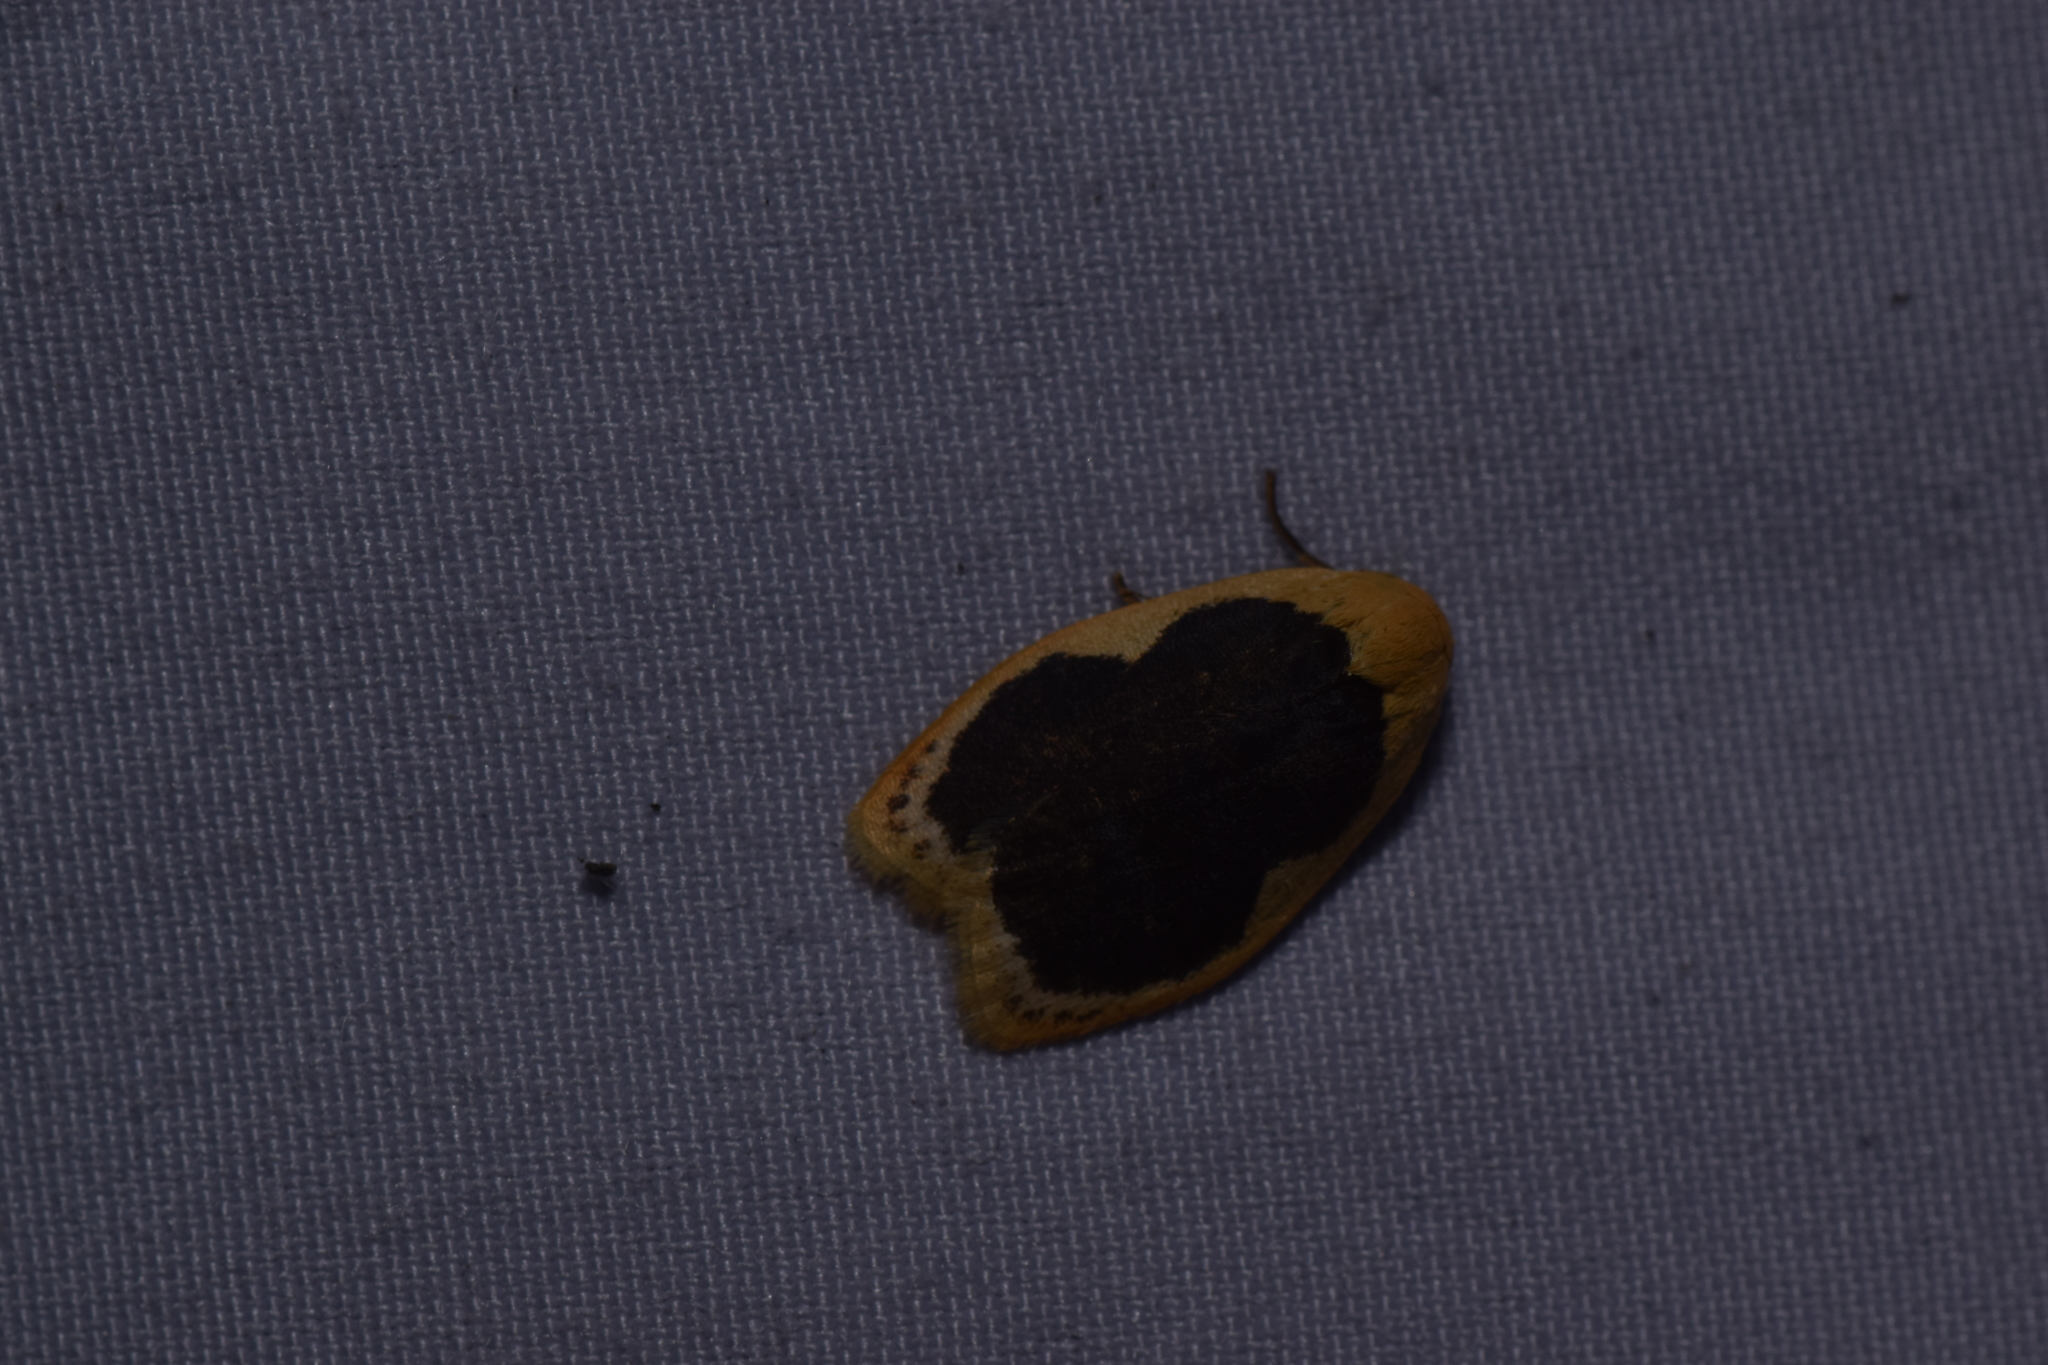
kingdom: Animalia
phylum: Arthropoda
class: Insecta
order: Lepidoptera
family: Erebidae
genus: Pseudoblabes
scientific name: Pseudoblabes oophora
